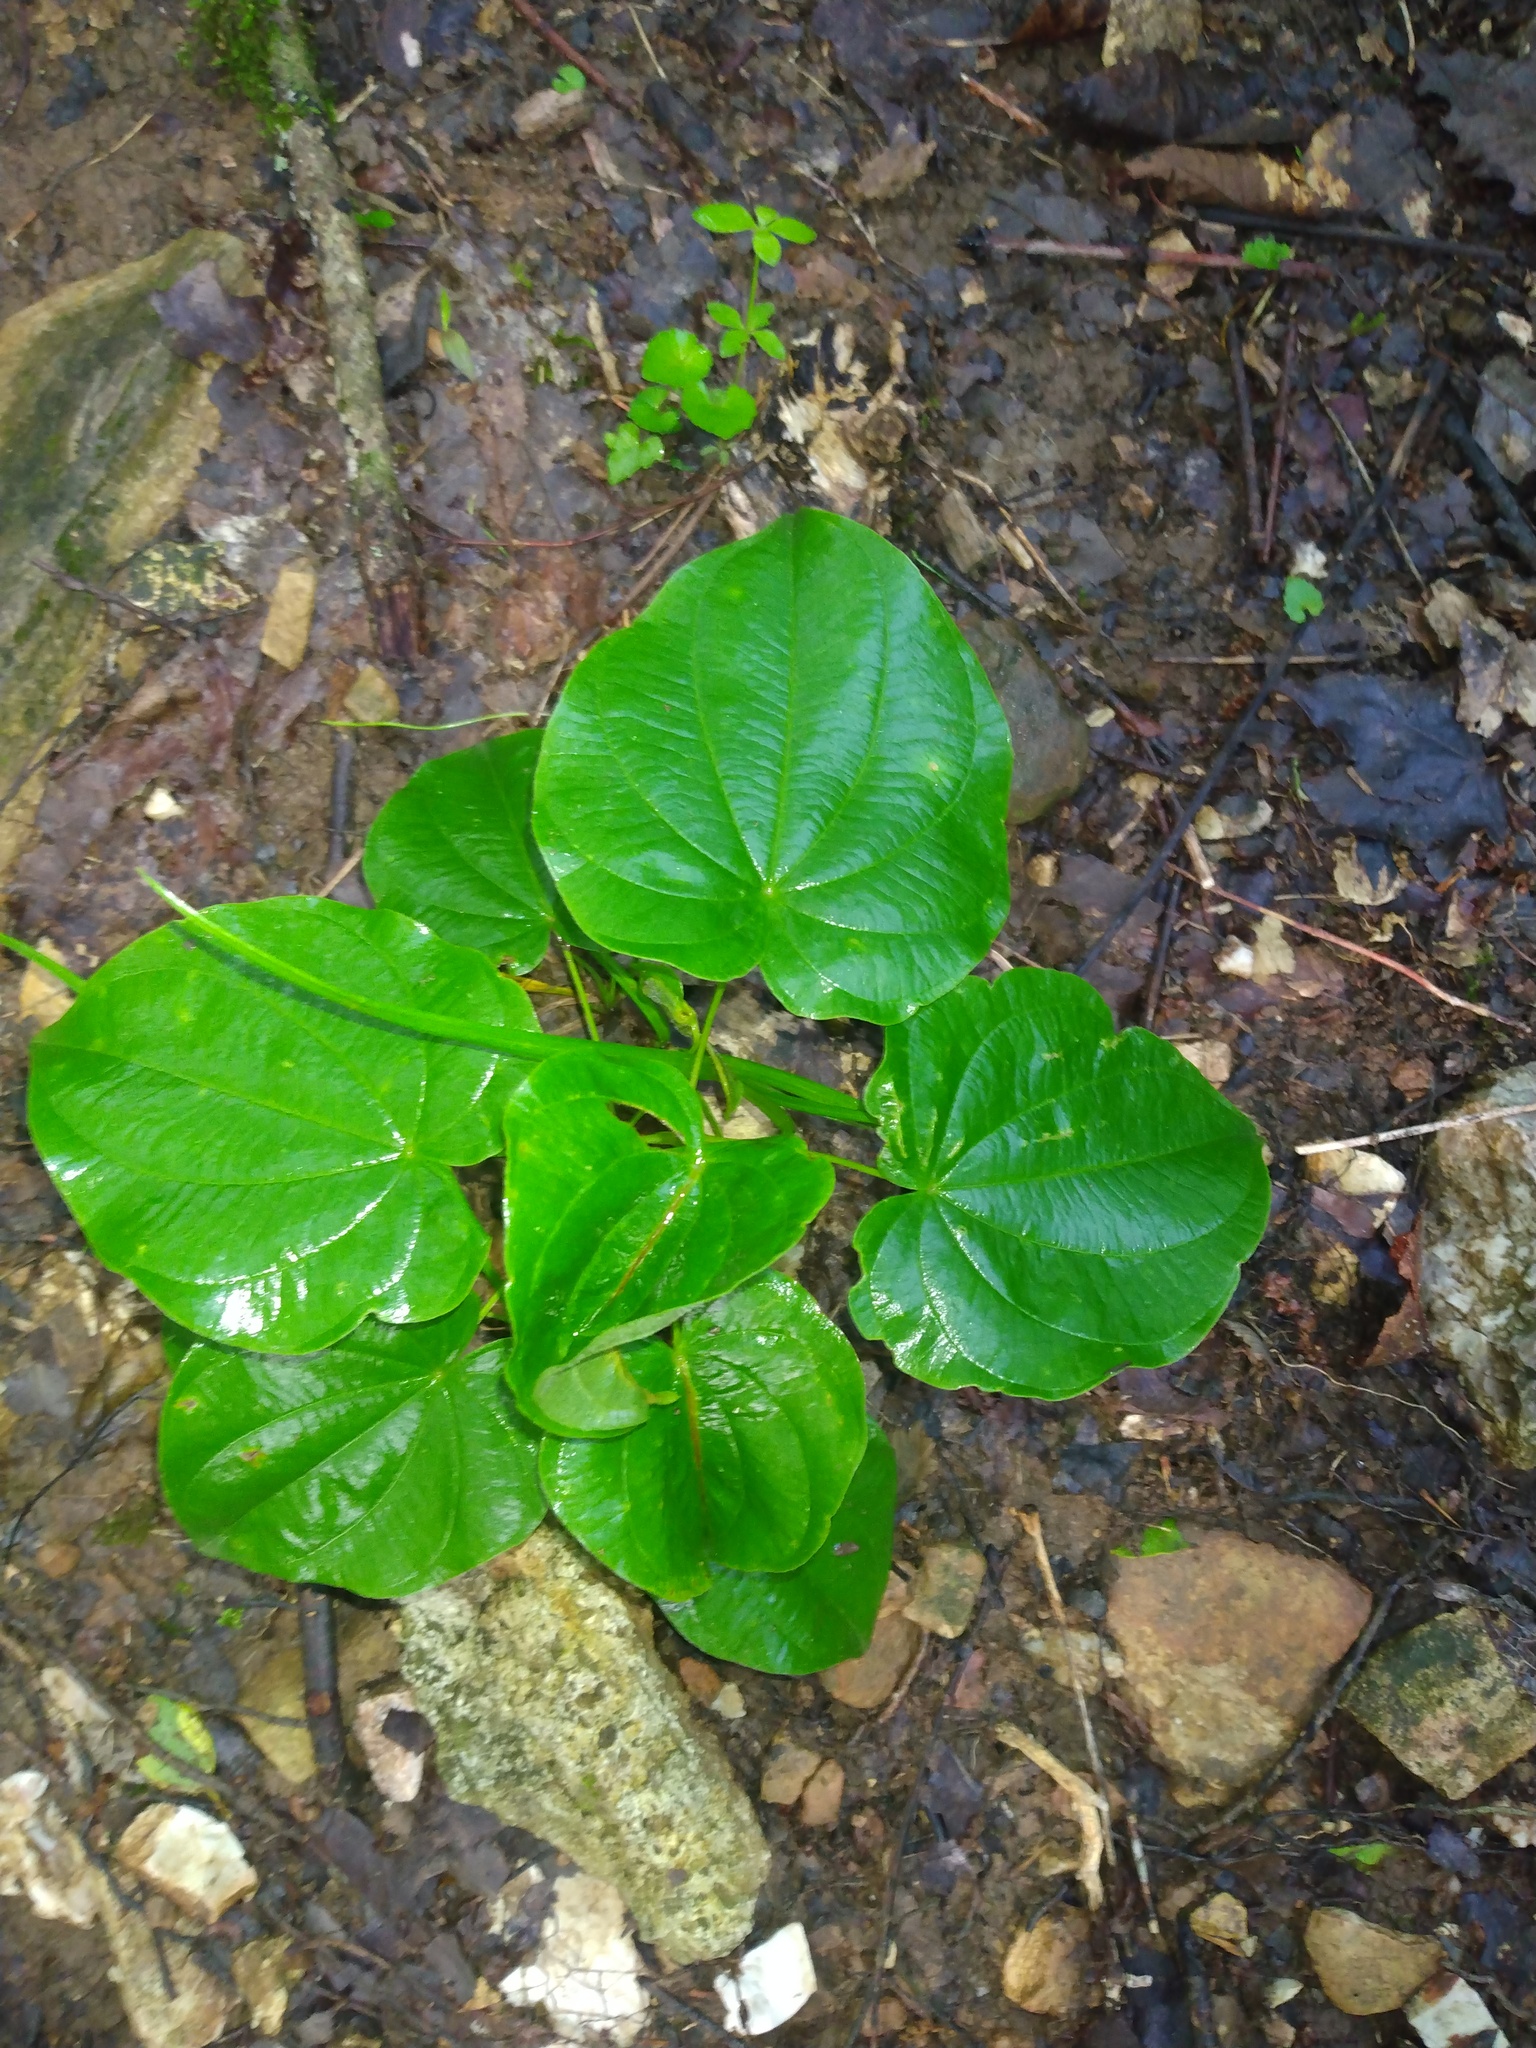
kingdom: Plantae
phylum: Tracheophyta
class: Liliopsida
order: Dioscoreales
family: Dioscoreaceae
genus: Dioscorea
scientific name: Dioscorea villosa
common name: Wild yam
